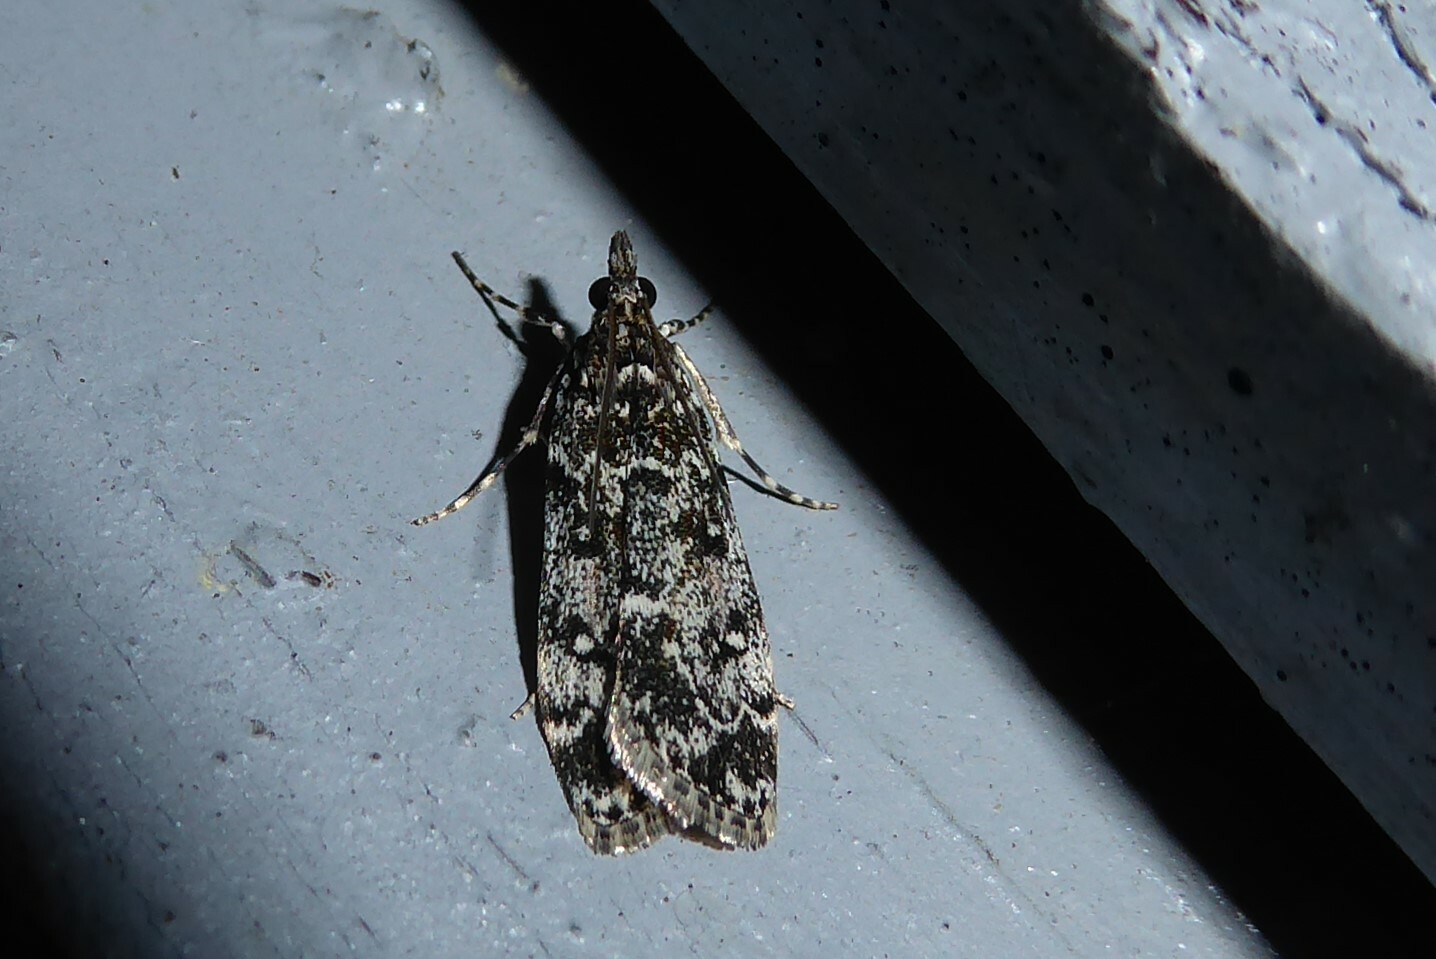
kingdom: Animalia
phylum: Arthropoda
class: Insecta
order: Lepidoptera
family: Crambidae
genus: Eudonia
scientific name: Eudonia philerga
